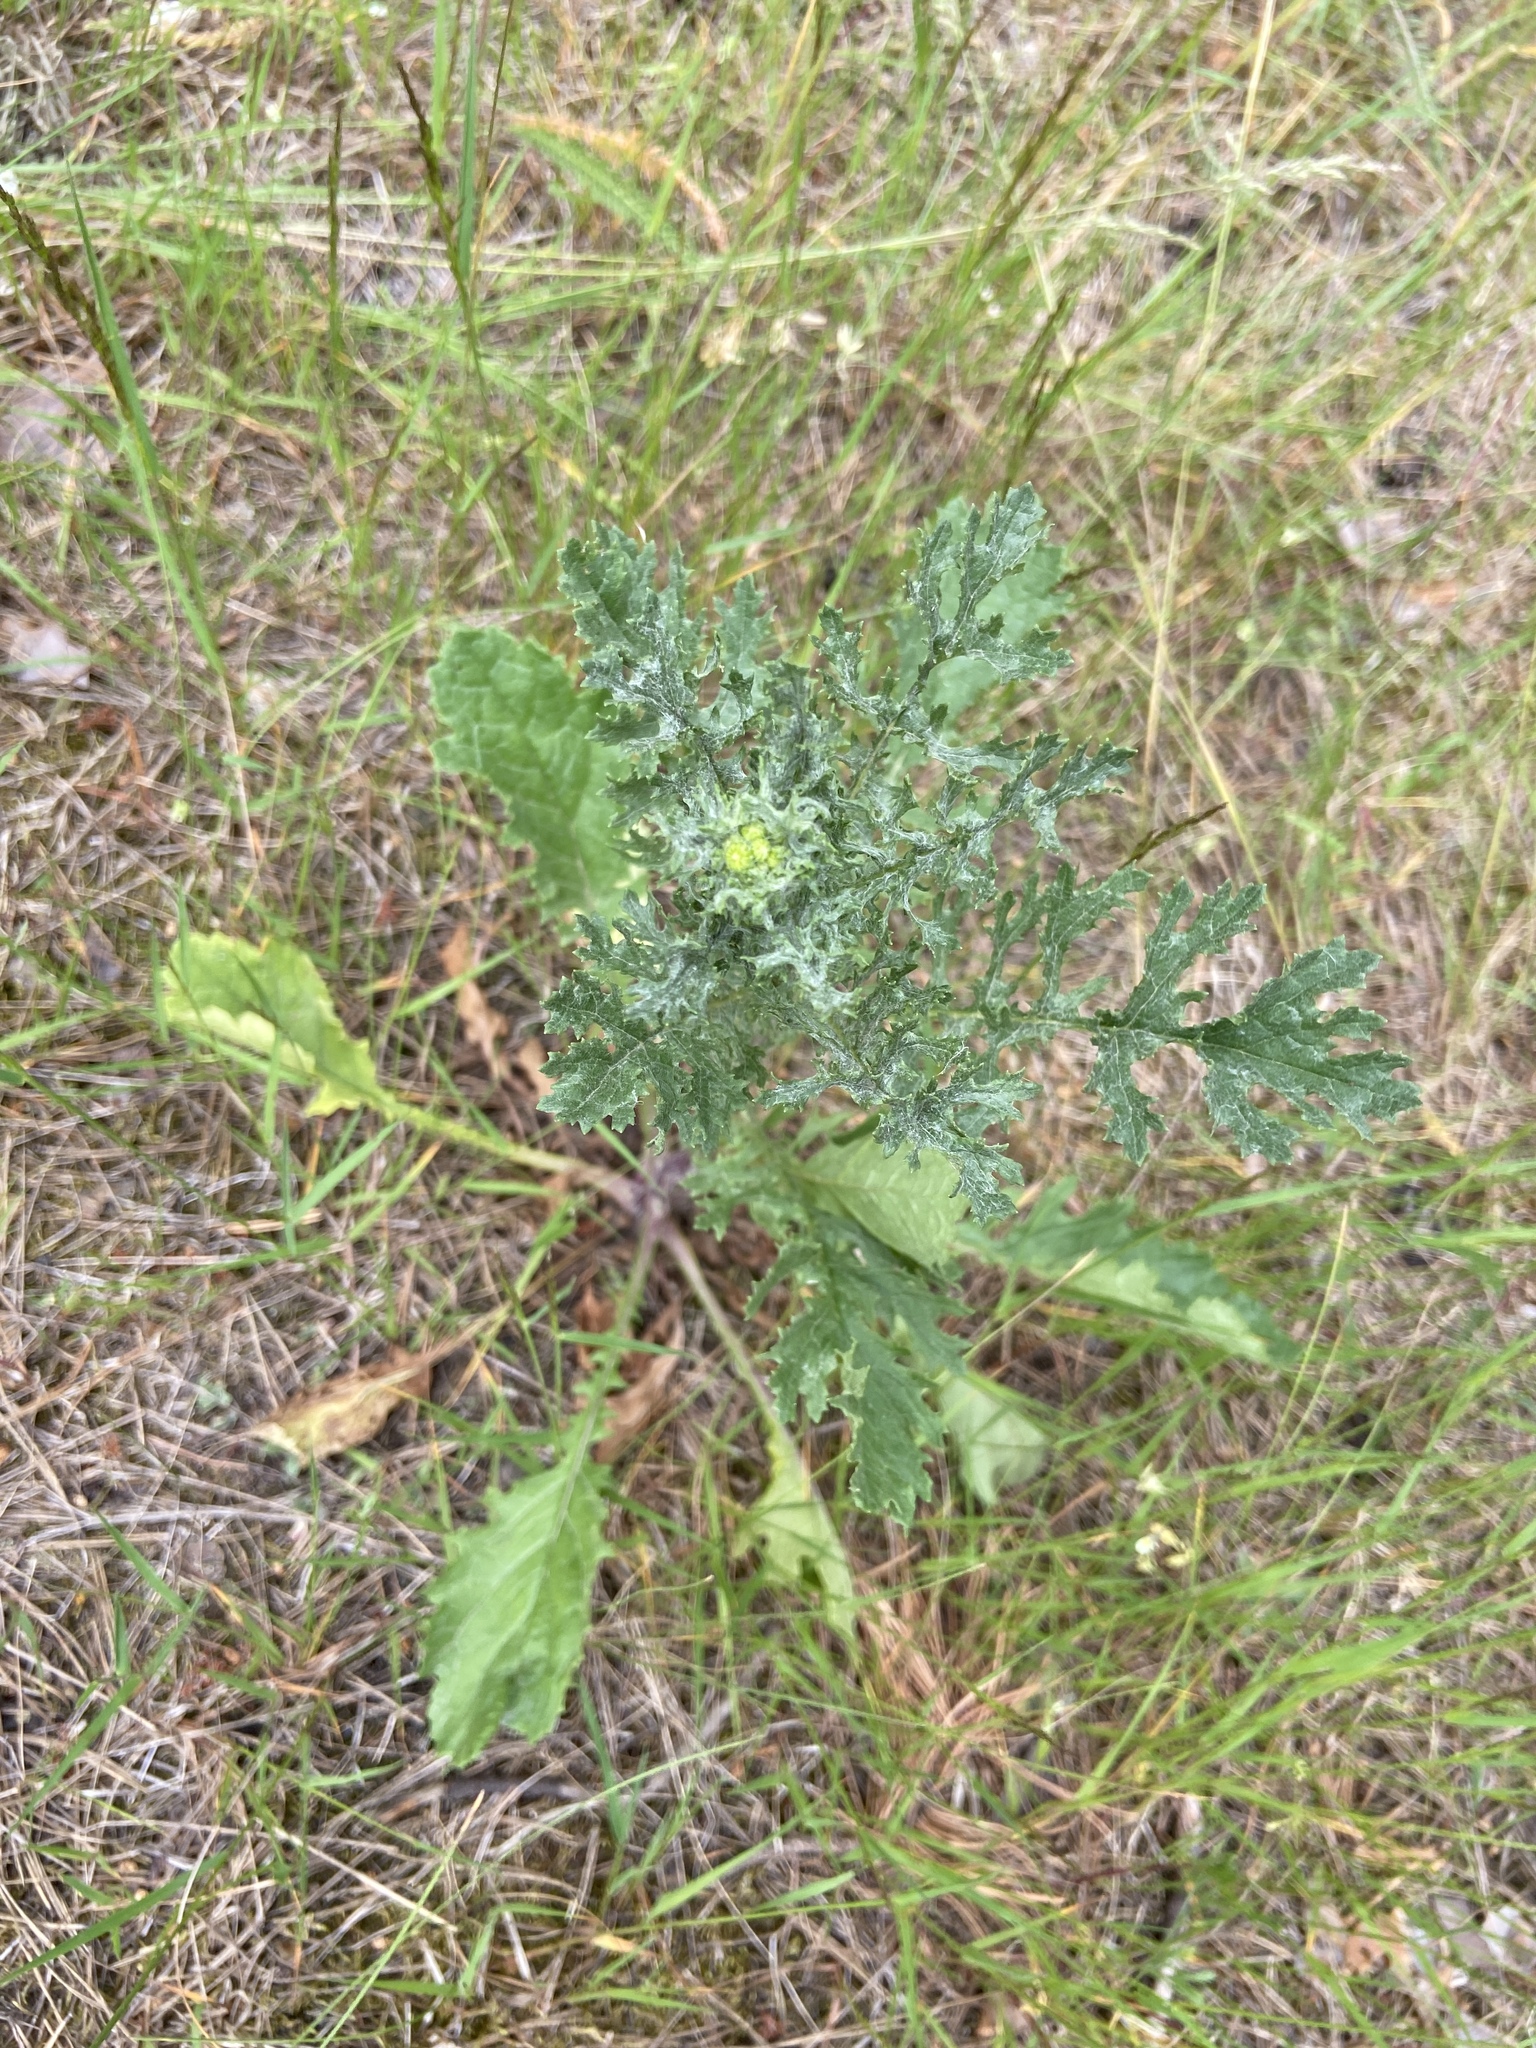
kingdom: Plantae
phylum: Tracheophyta
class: Magnoliopsida
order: Asterales
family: Asteraceae
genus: Jacobaea
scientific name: Jacobaea vulgaris
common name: Stinking willie
